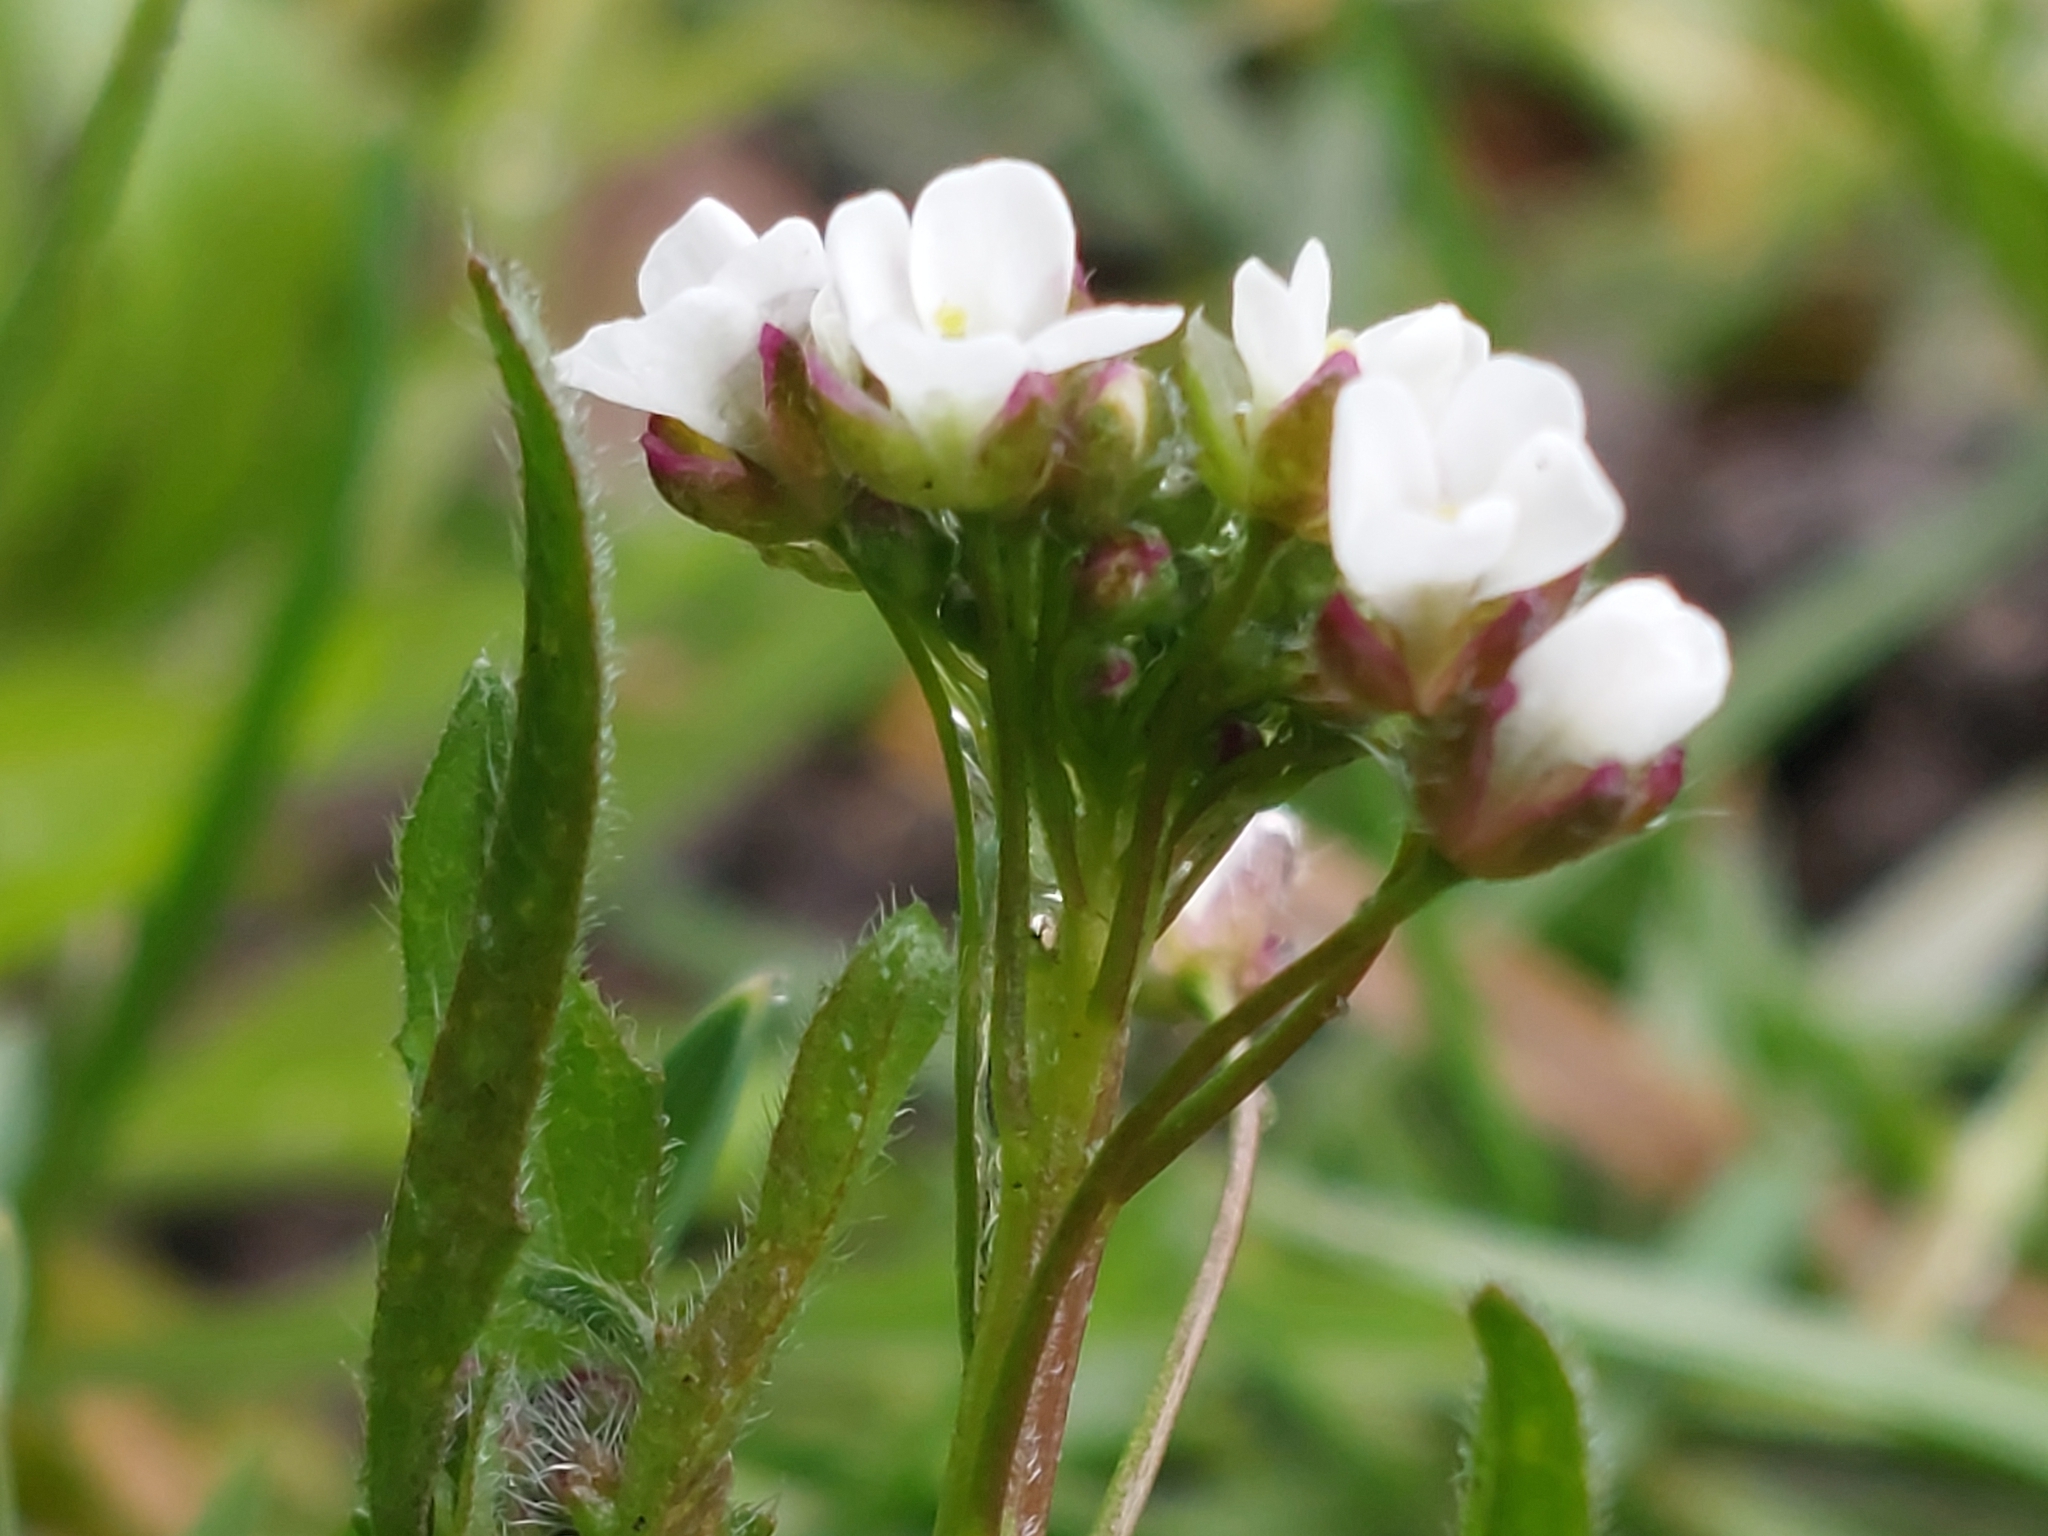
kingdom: Plantae
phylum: Tracheophyta
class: Magnoliopsida
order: Brassicales
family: Brassicaceae
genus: Capsella
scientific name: Capsella bursa-pastoris
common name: Shepherd's purse
